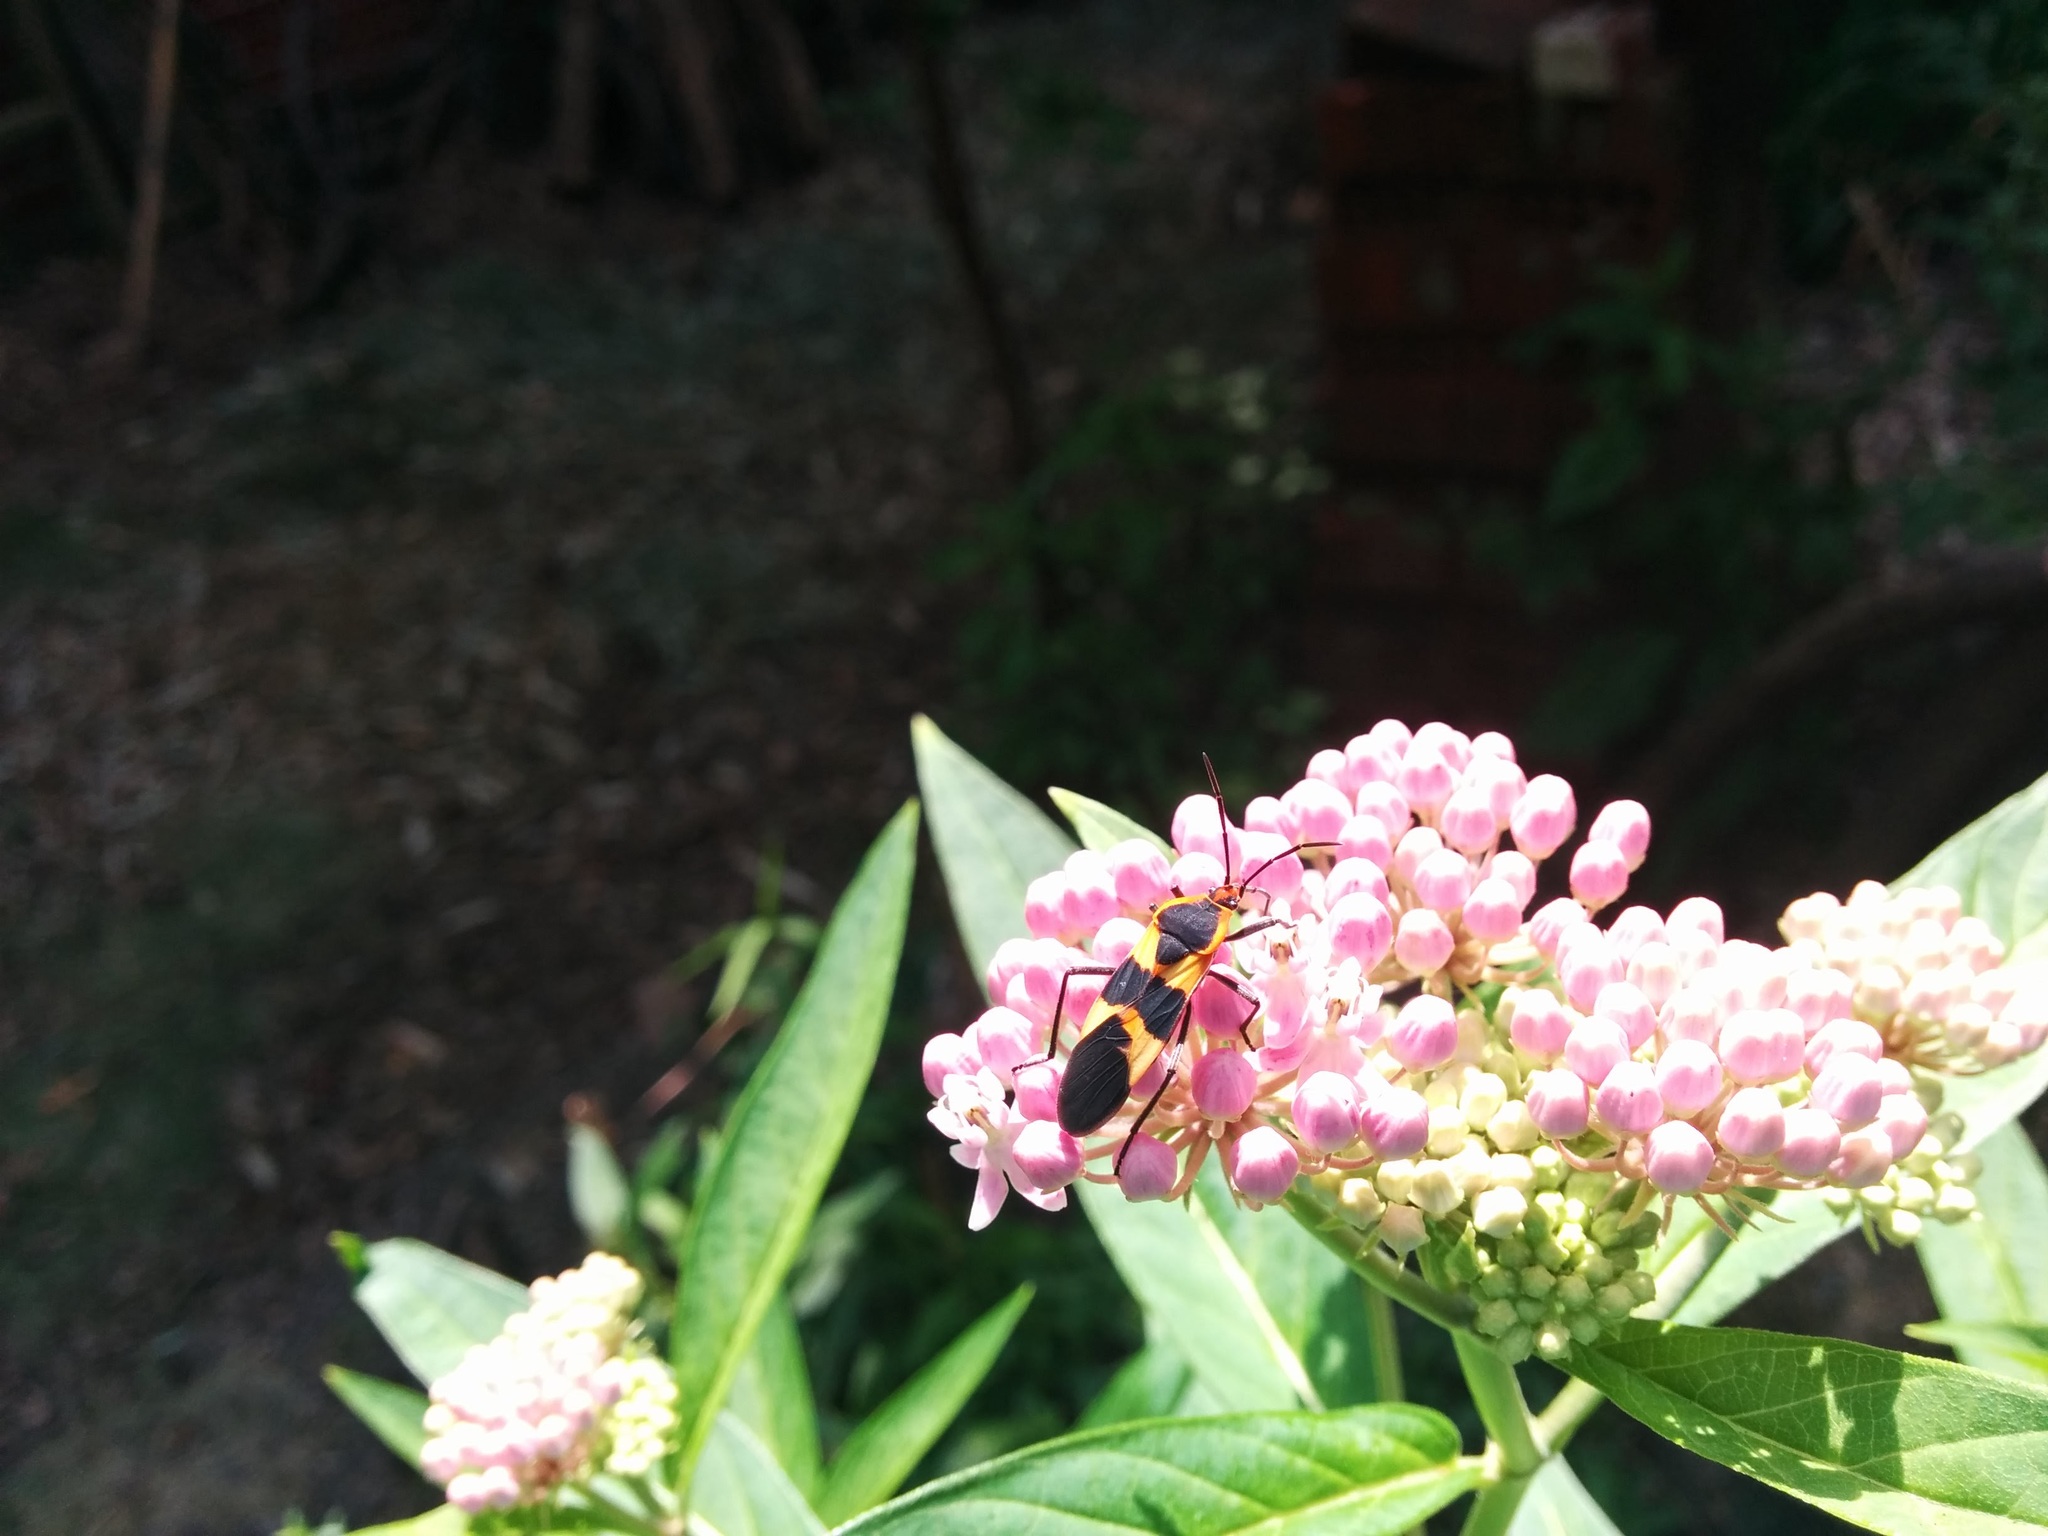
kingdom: Animalia
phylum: Arthropoda
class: Insecta
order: Hemiptera
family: Lygaeidae
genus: Oncopeltus
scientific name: Oncopeltus fasciatus
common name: Large milkweed bug
